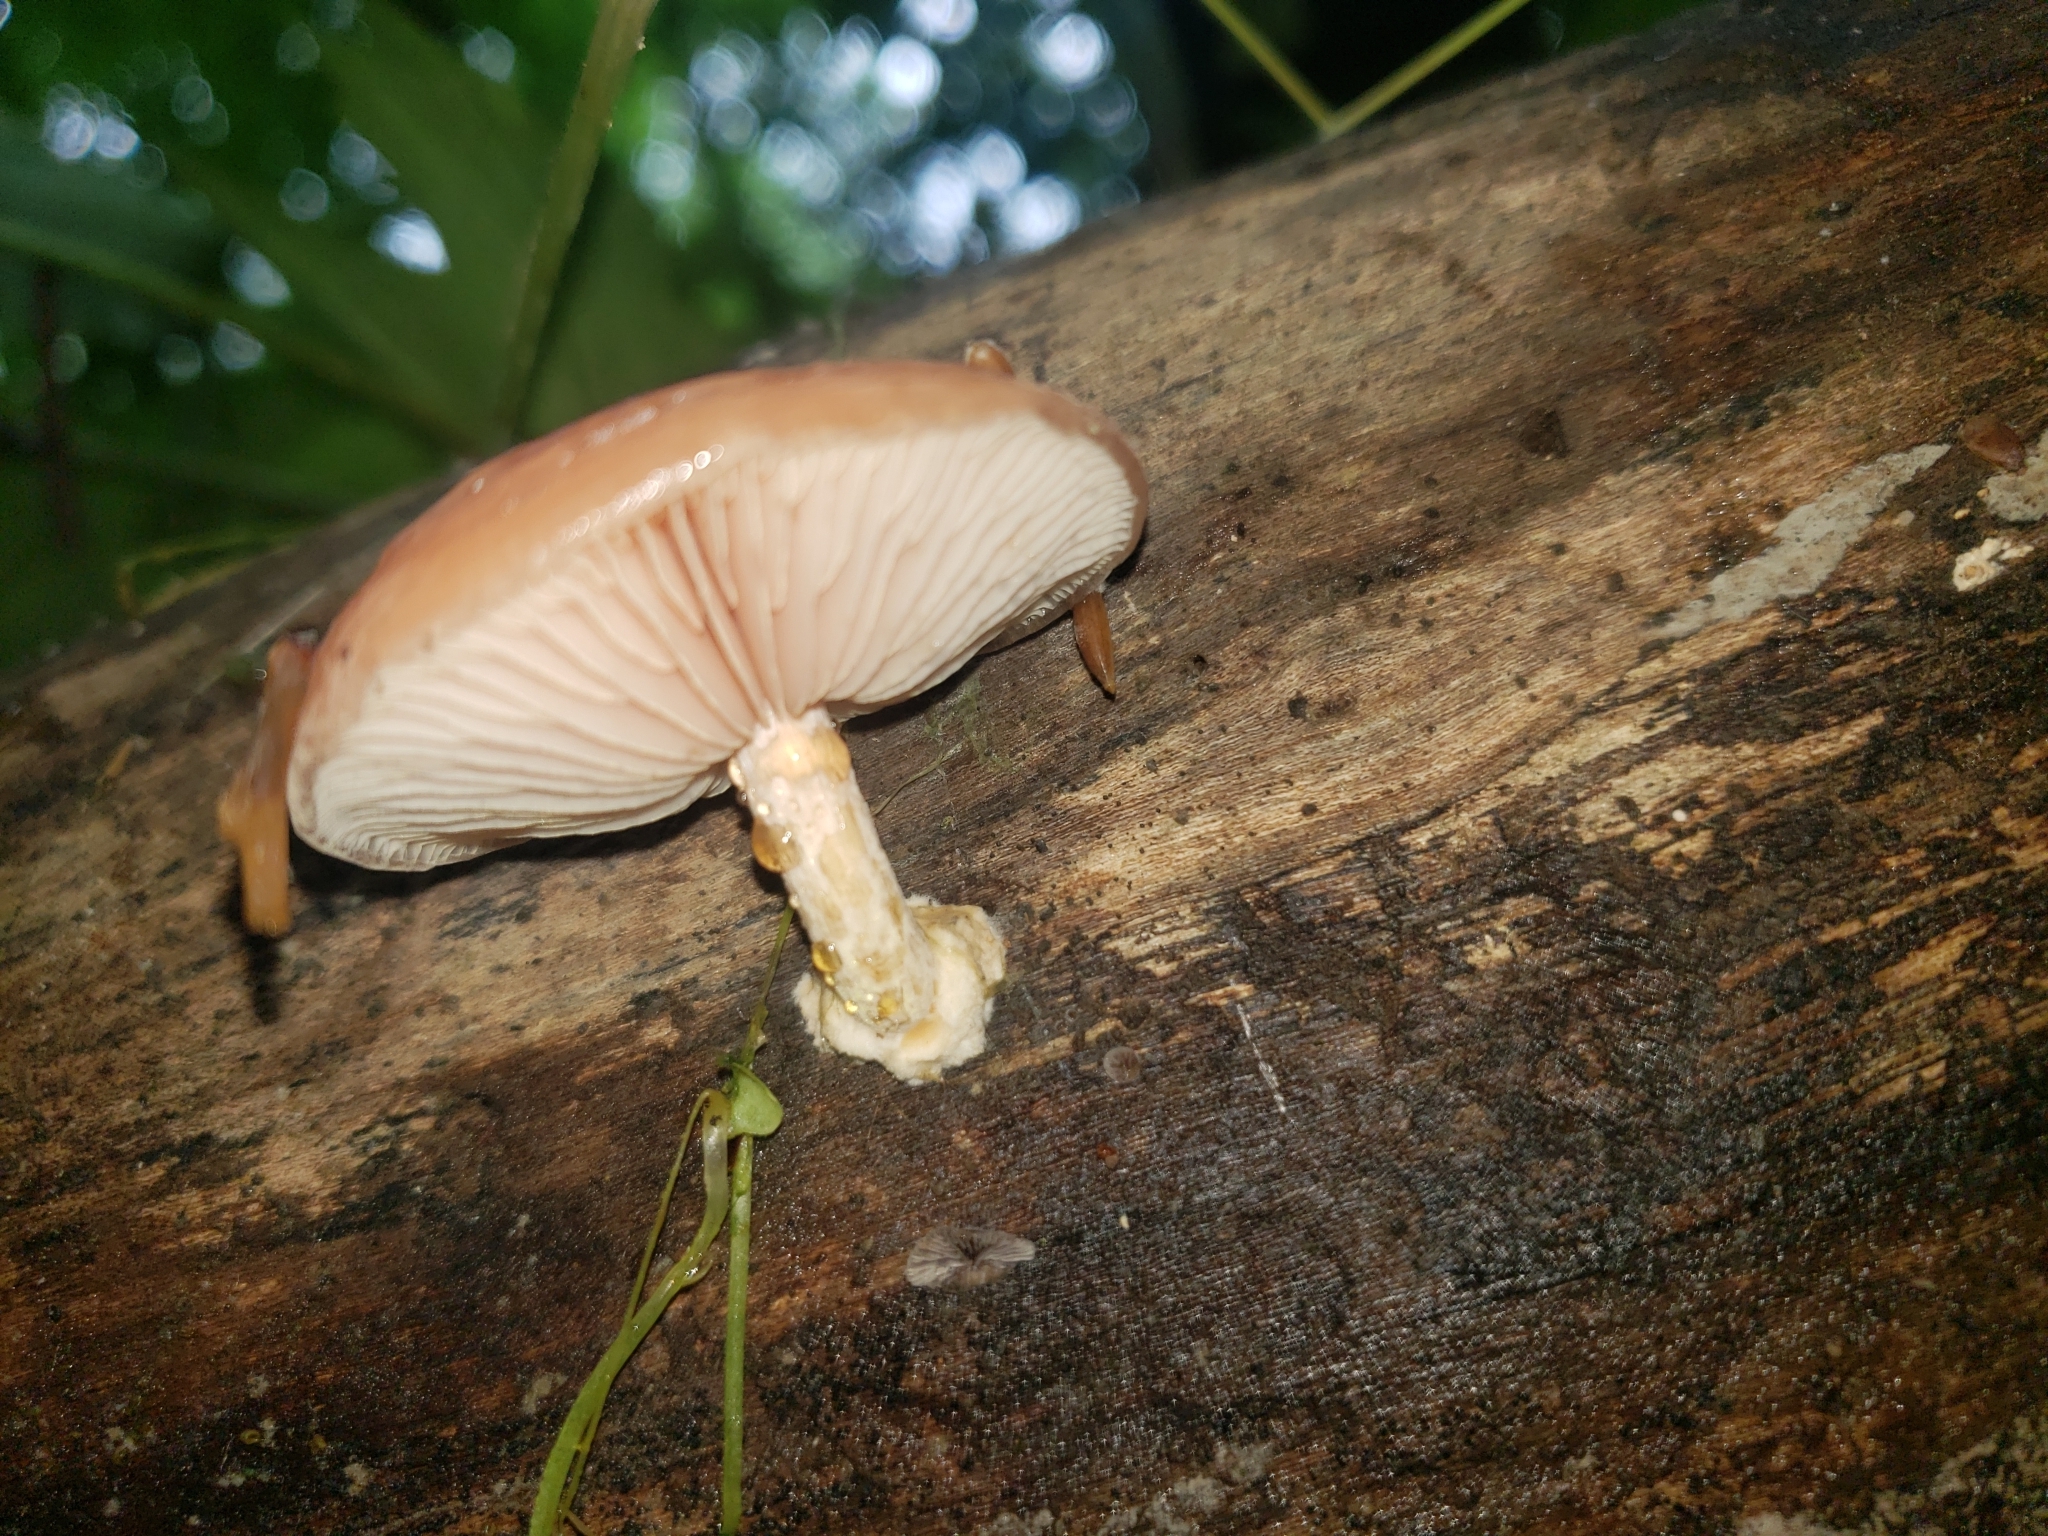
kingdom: Fungi
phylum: Basidiomycota
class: Agaricomycetes
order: Agaricales
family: Physalacriaceae
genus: Rhodotus
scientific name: Rhodotus palmatus
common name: Wrinkled peach
